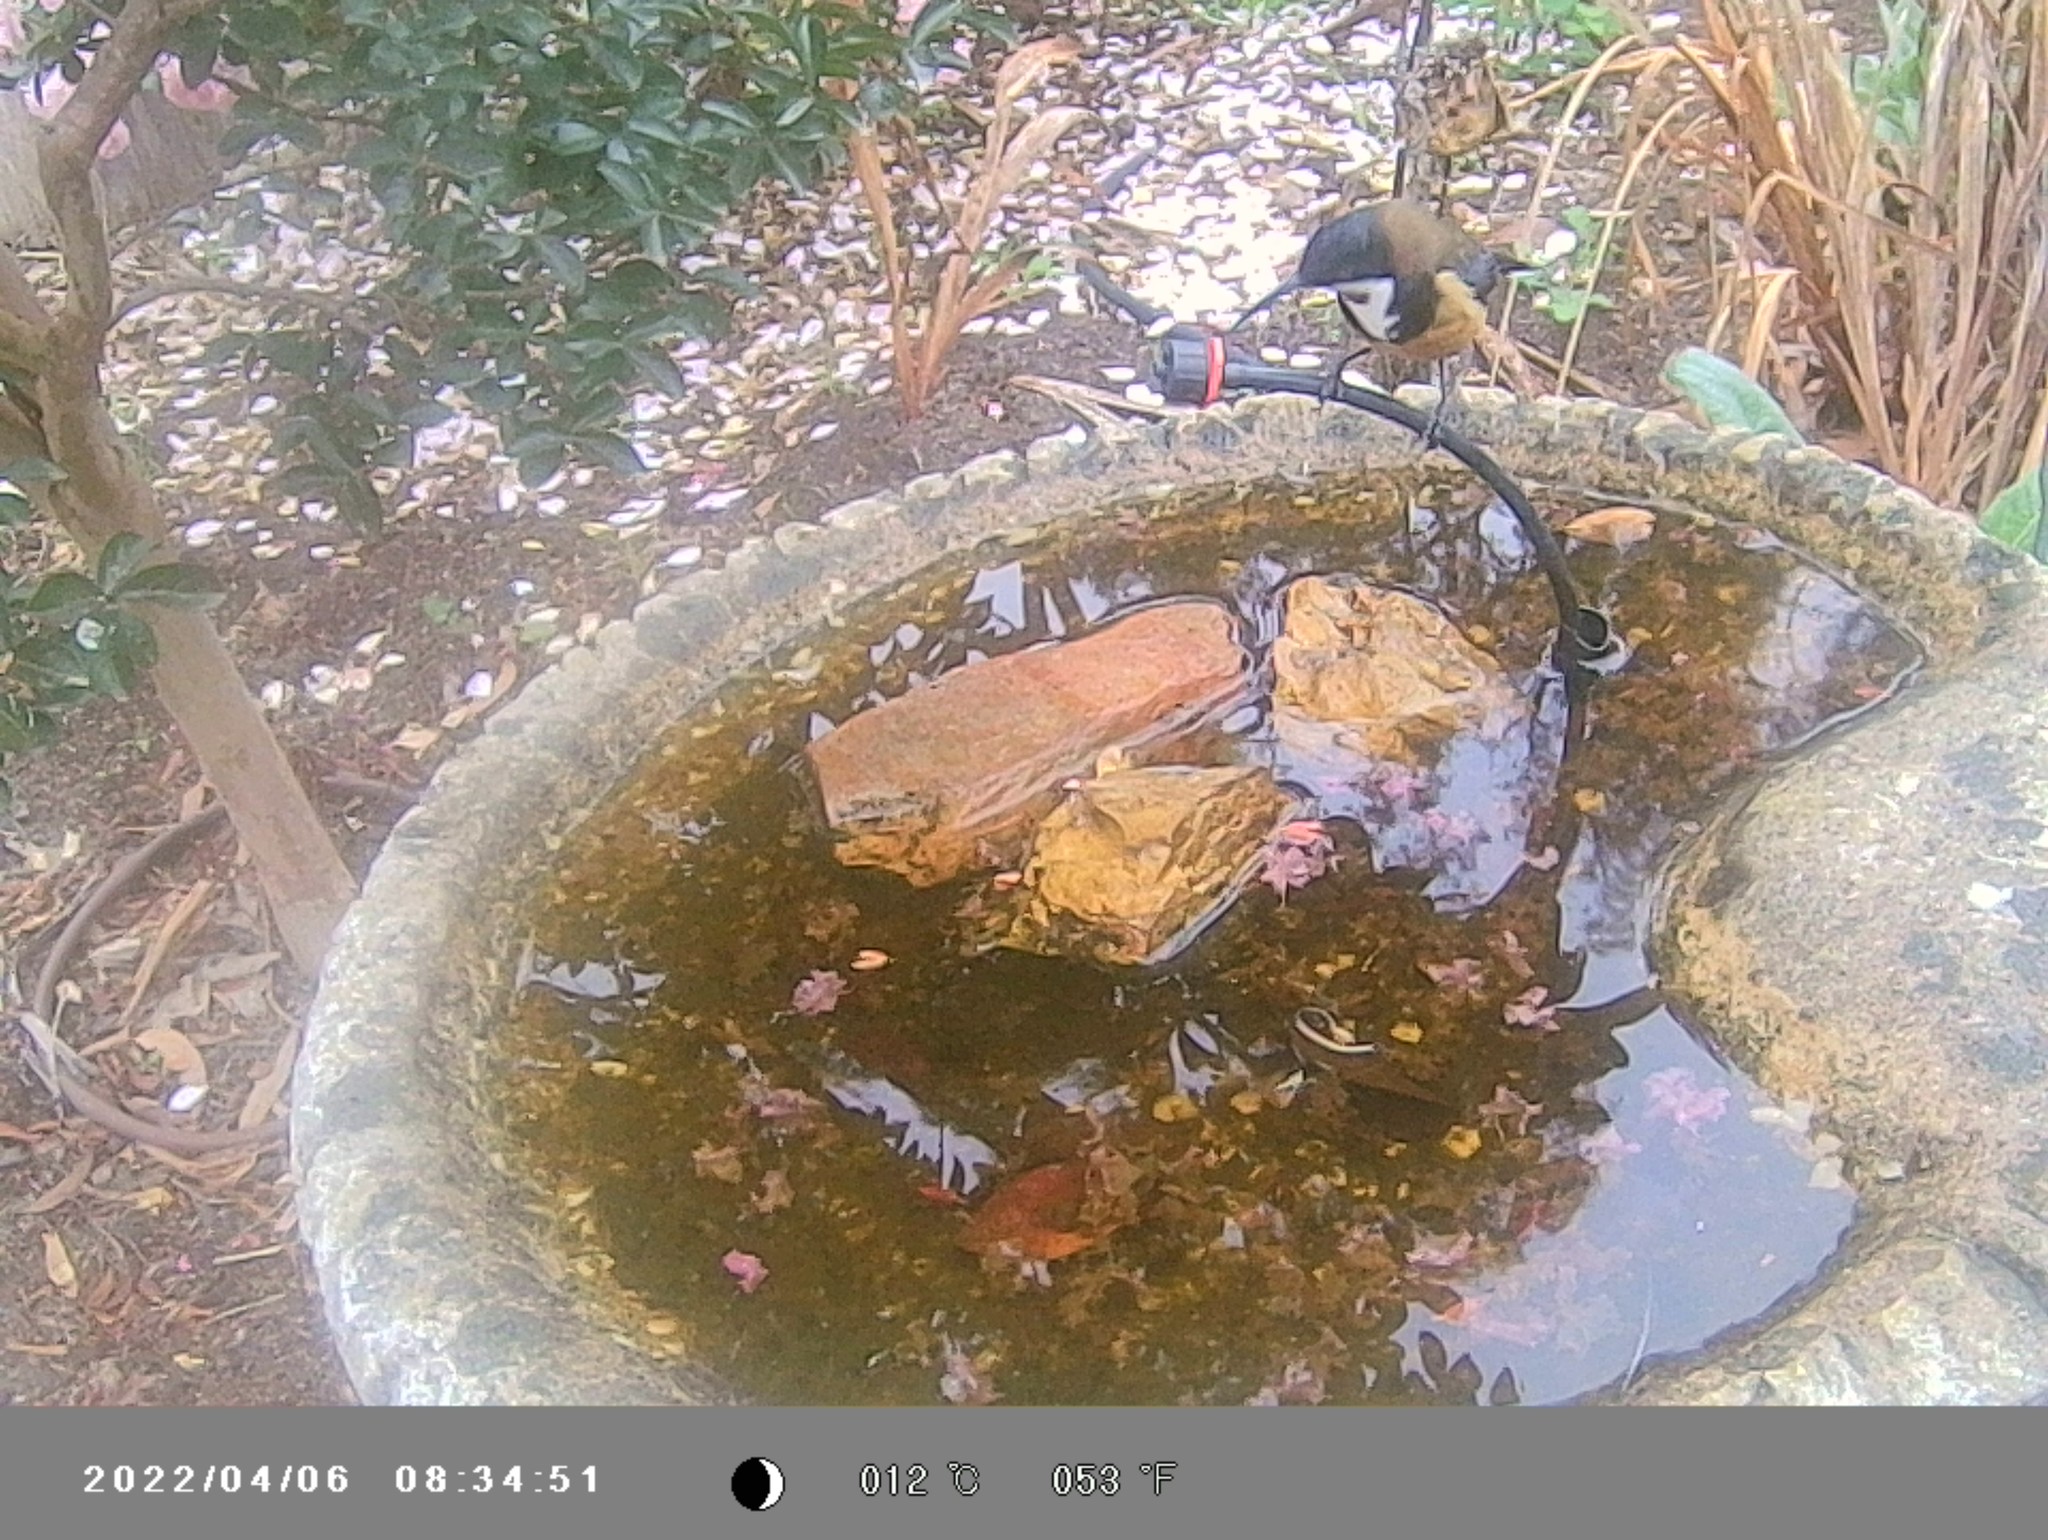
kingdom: Animalia
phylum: Chordata
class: Aves
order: Passeriformes
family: Meliphagidae
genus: Acanthorhynchus
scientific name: Acanthorhynchus tenuirostris
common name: Eastern spinebill
